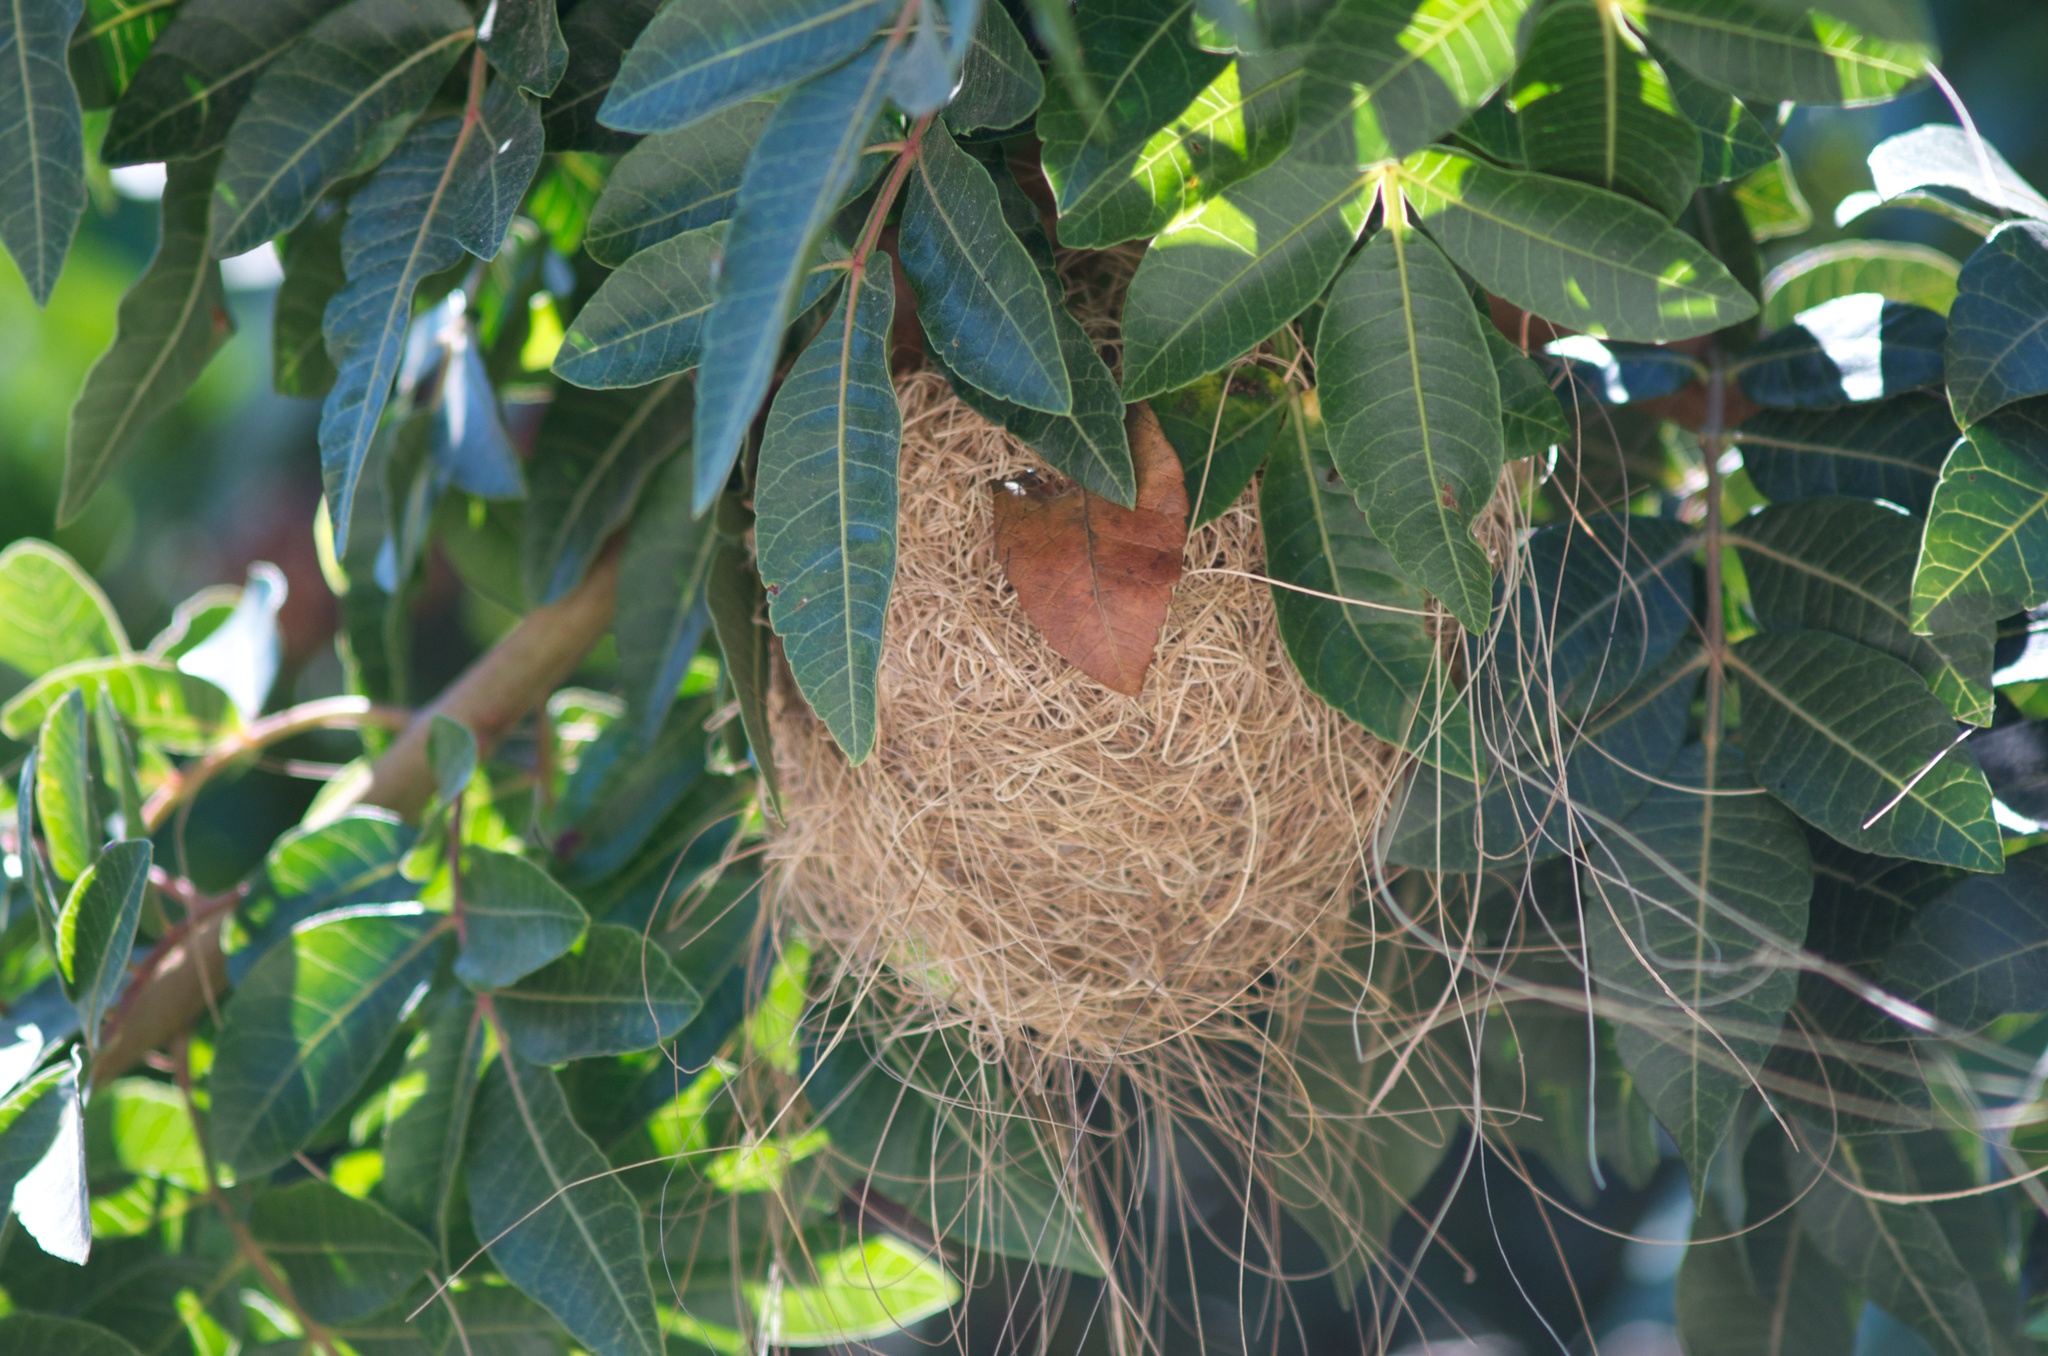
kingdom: Animalia
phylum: Chordata
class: Aves
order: Passeriformes
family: Icteridae
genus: Icterus
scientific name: Icterus cucullatus
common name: Hooded oriole
